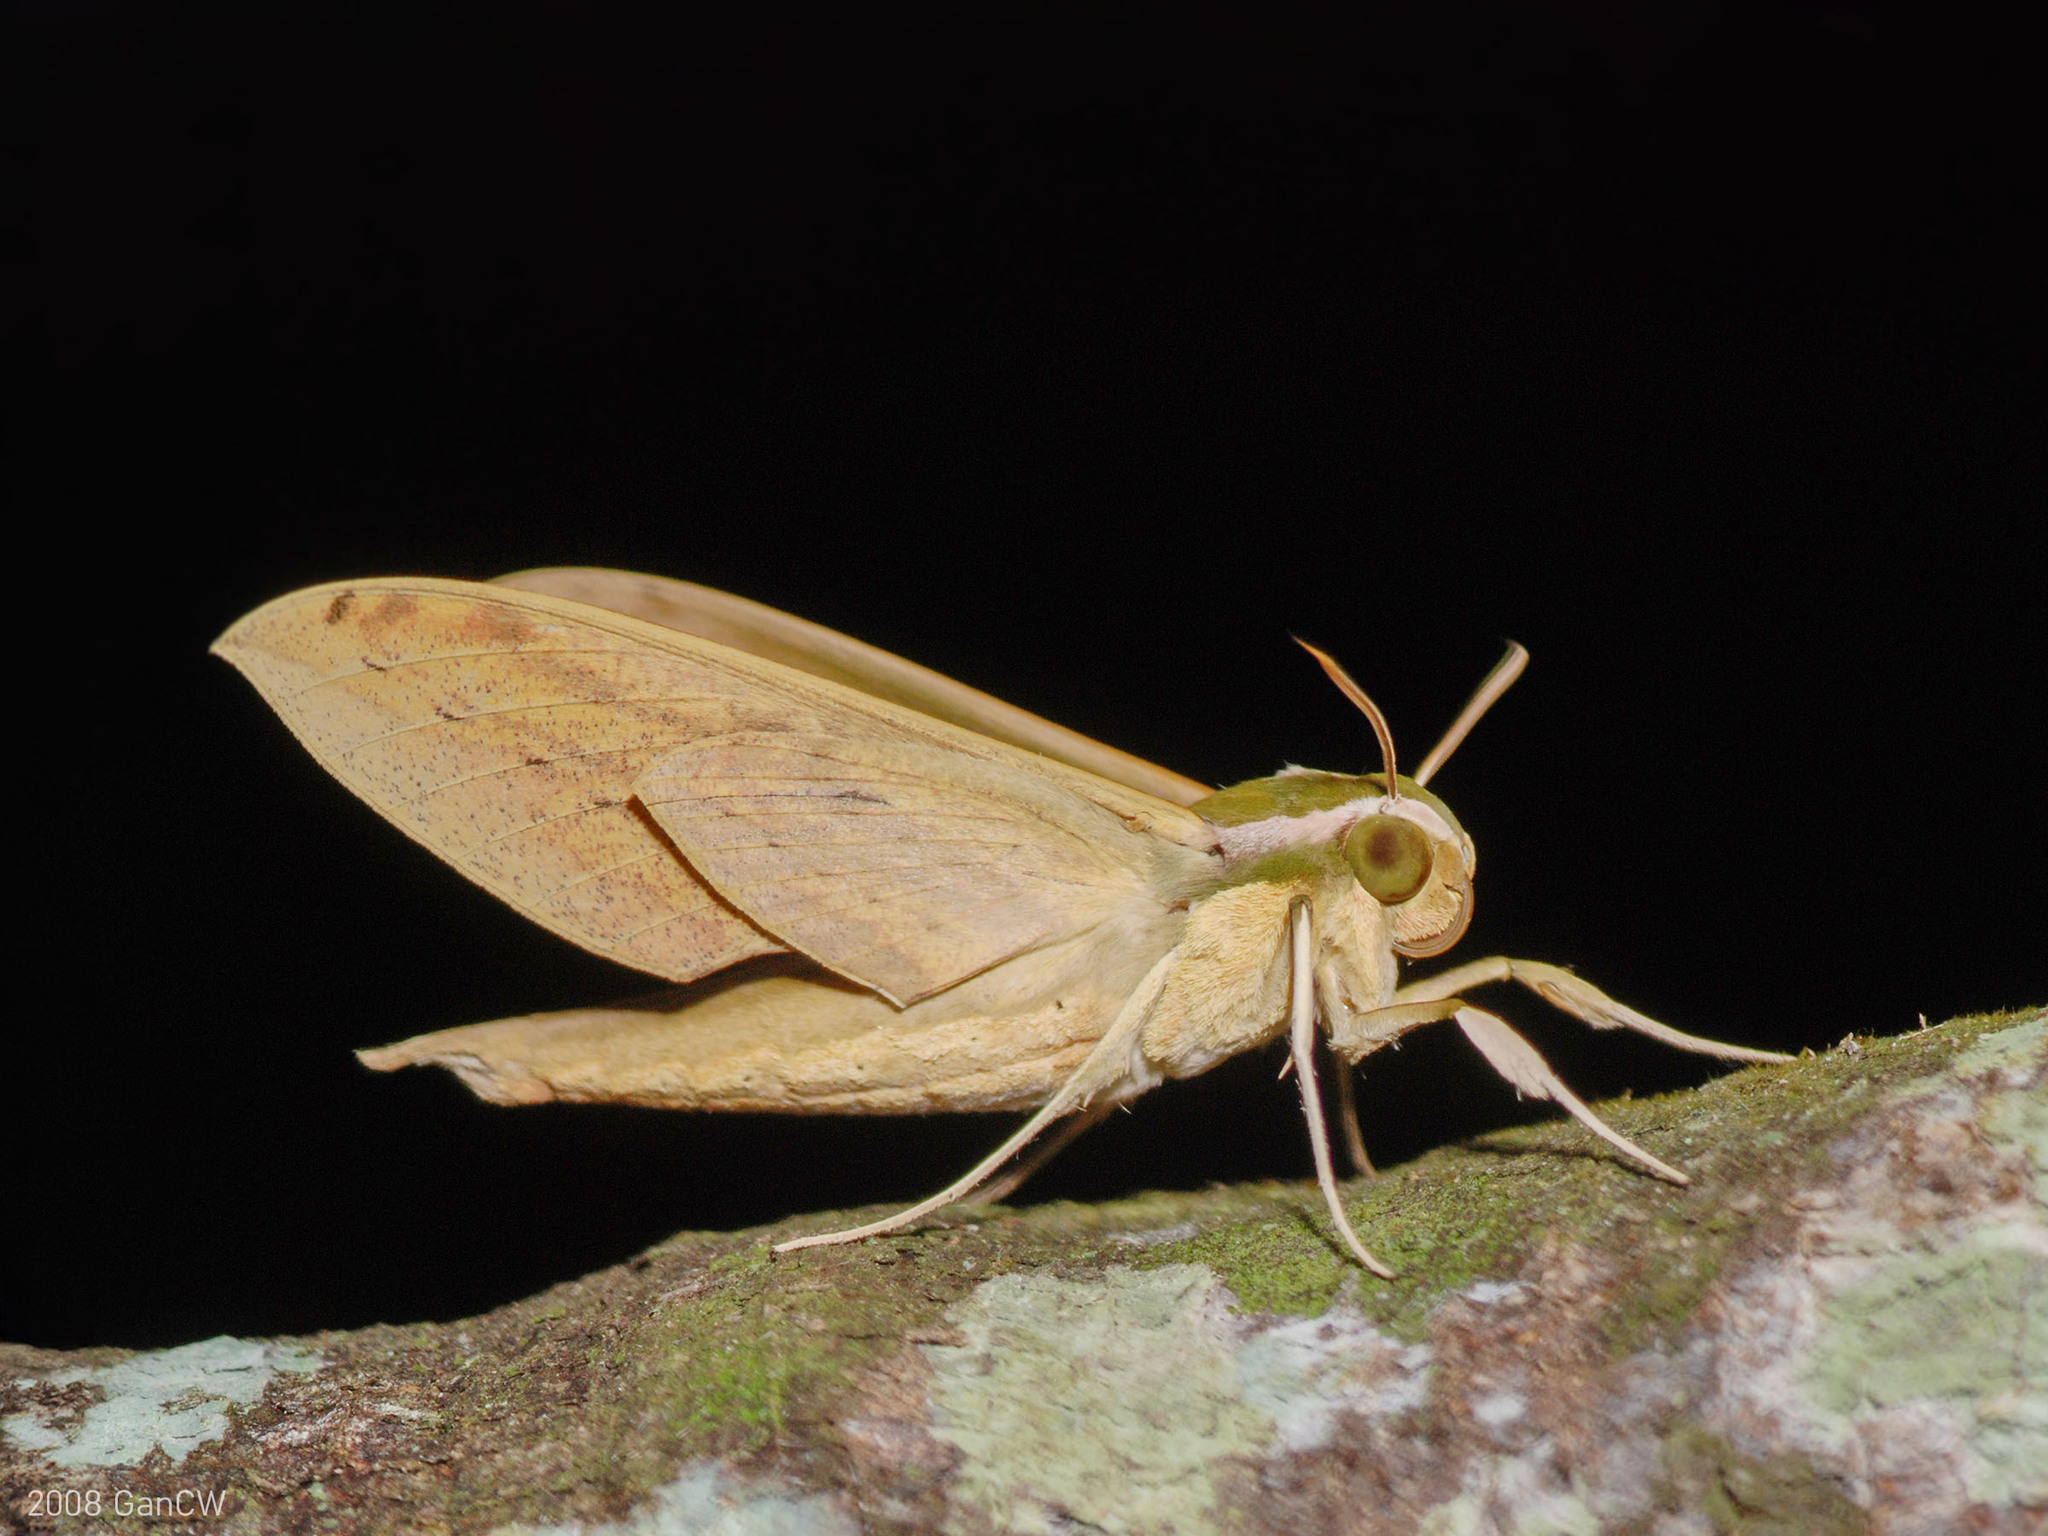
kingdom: Animalia
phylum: Arthropoda
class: Insecta
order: Lepidoptera
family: Sphingidae
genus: Cechetra
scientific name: Cechetra lineosa
